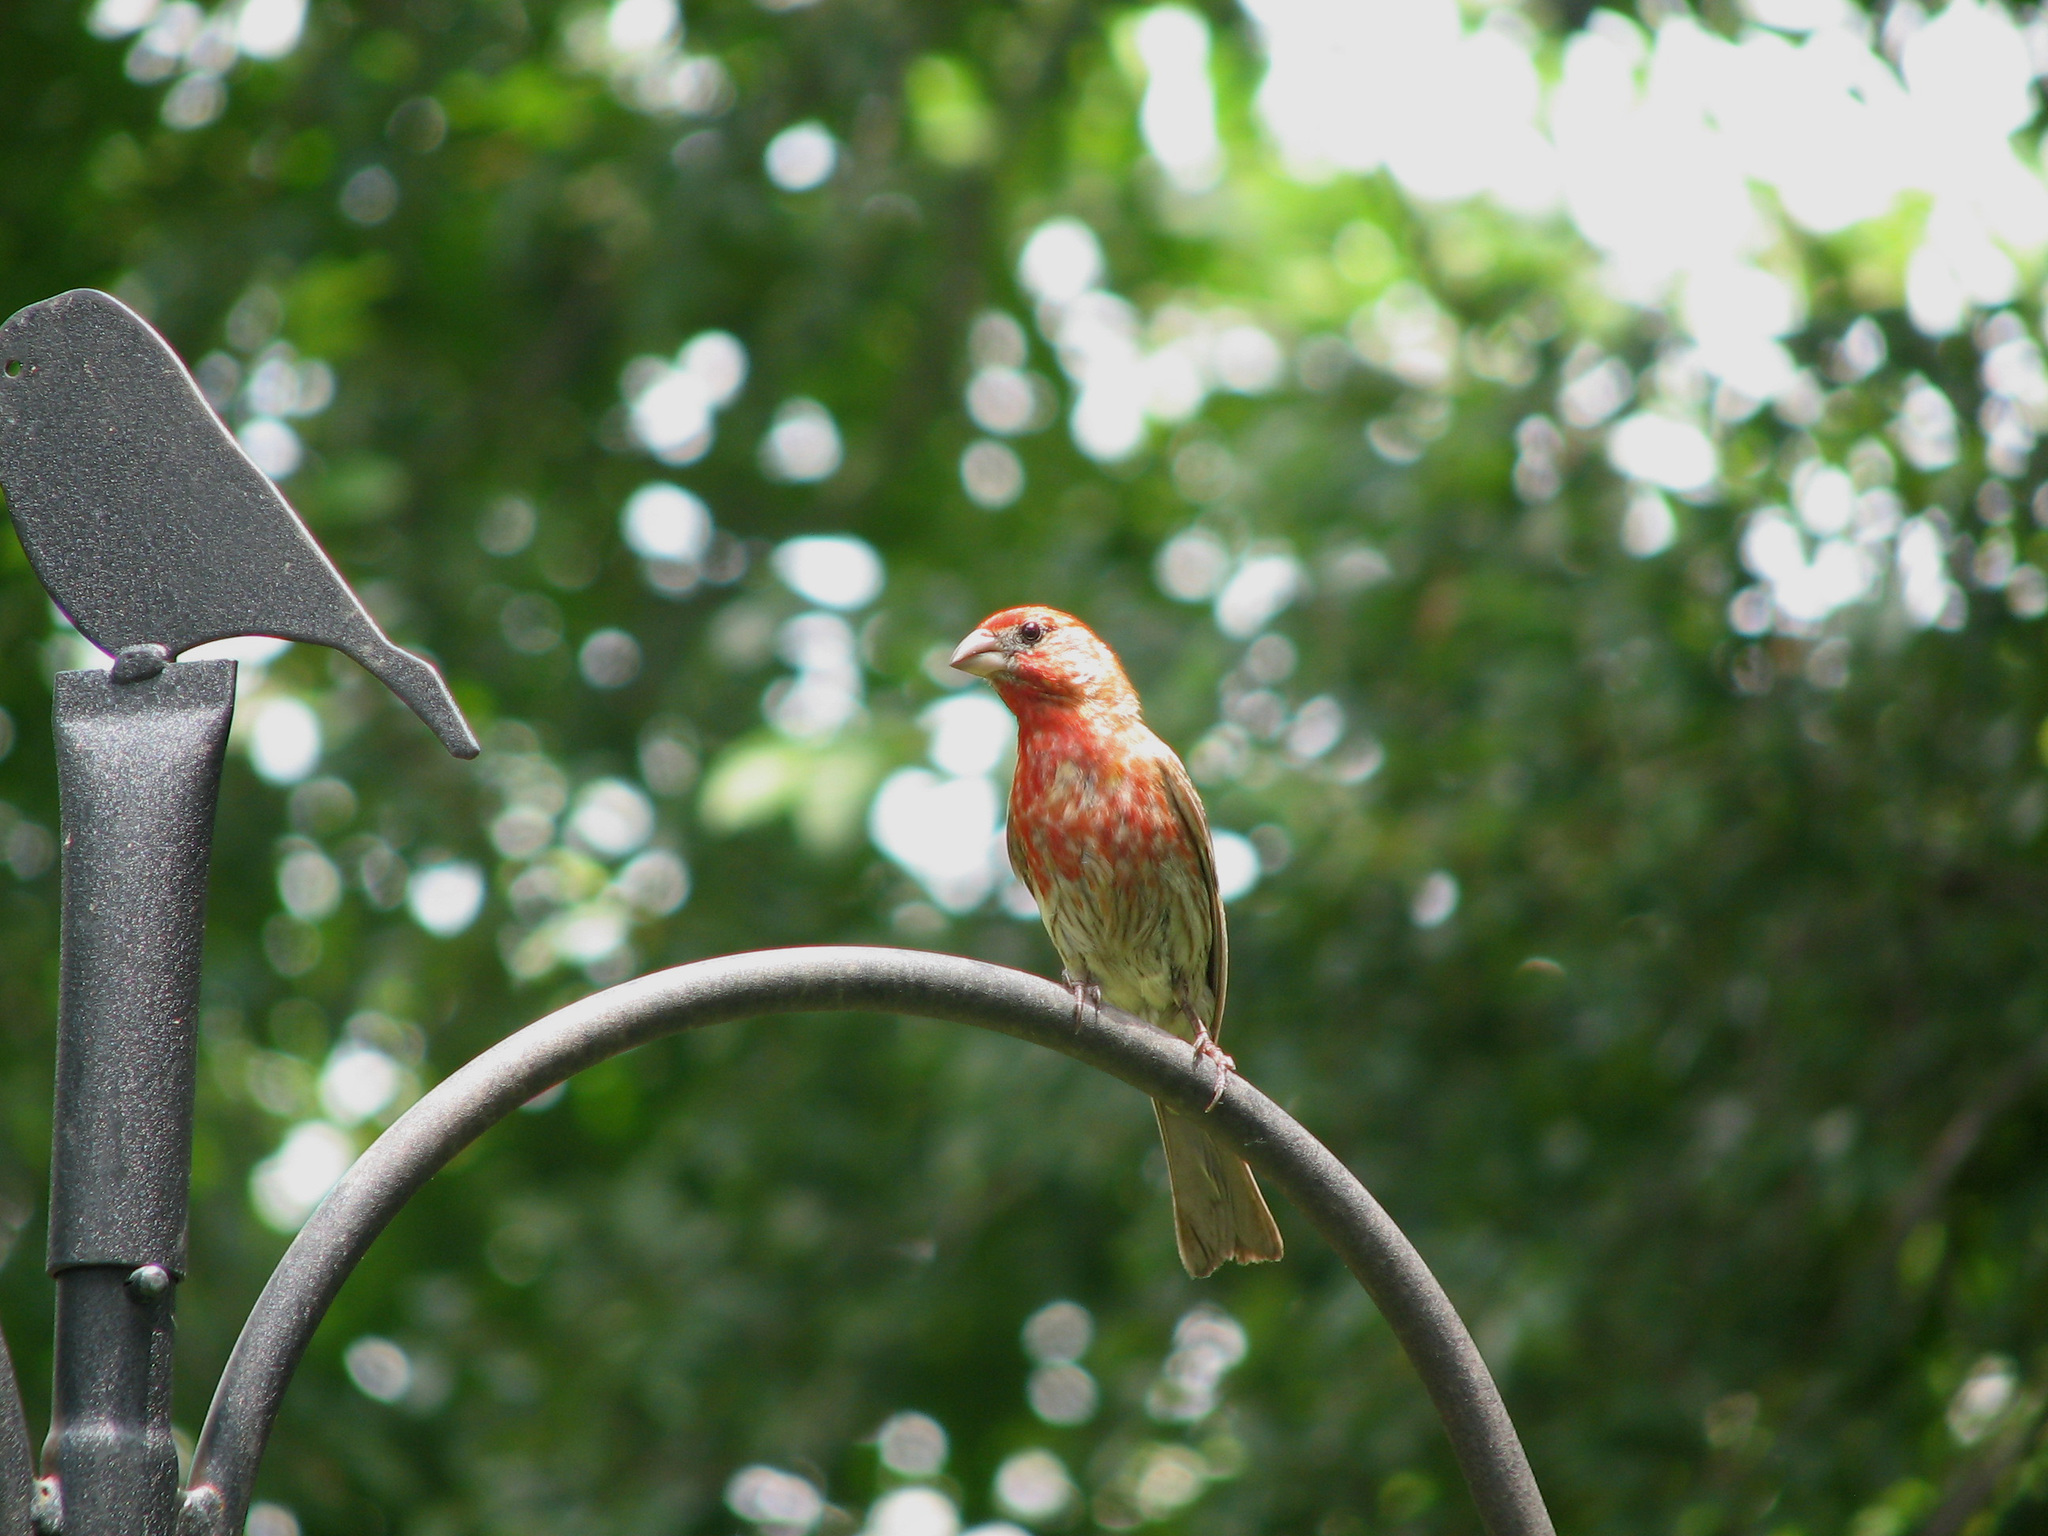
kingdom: Animalia
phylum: Chordata
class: Aves
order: Passeriformes
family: Fringillidae
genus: Haemorhous
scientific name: Haemorhous mexicanus
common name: House finch
